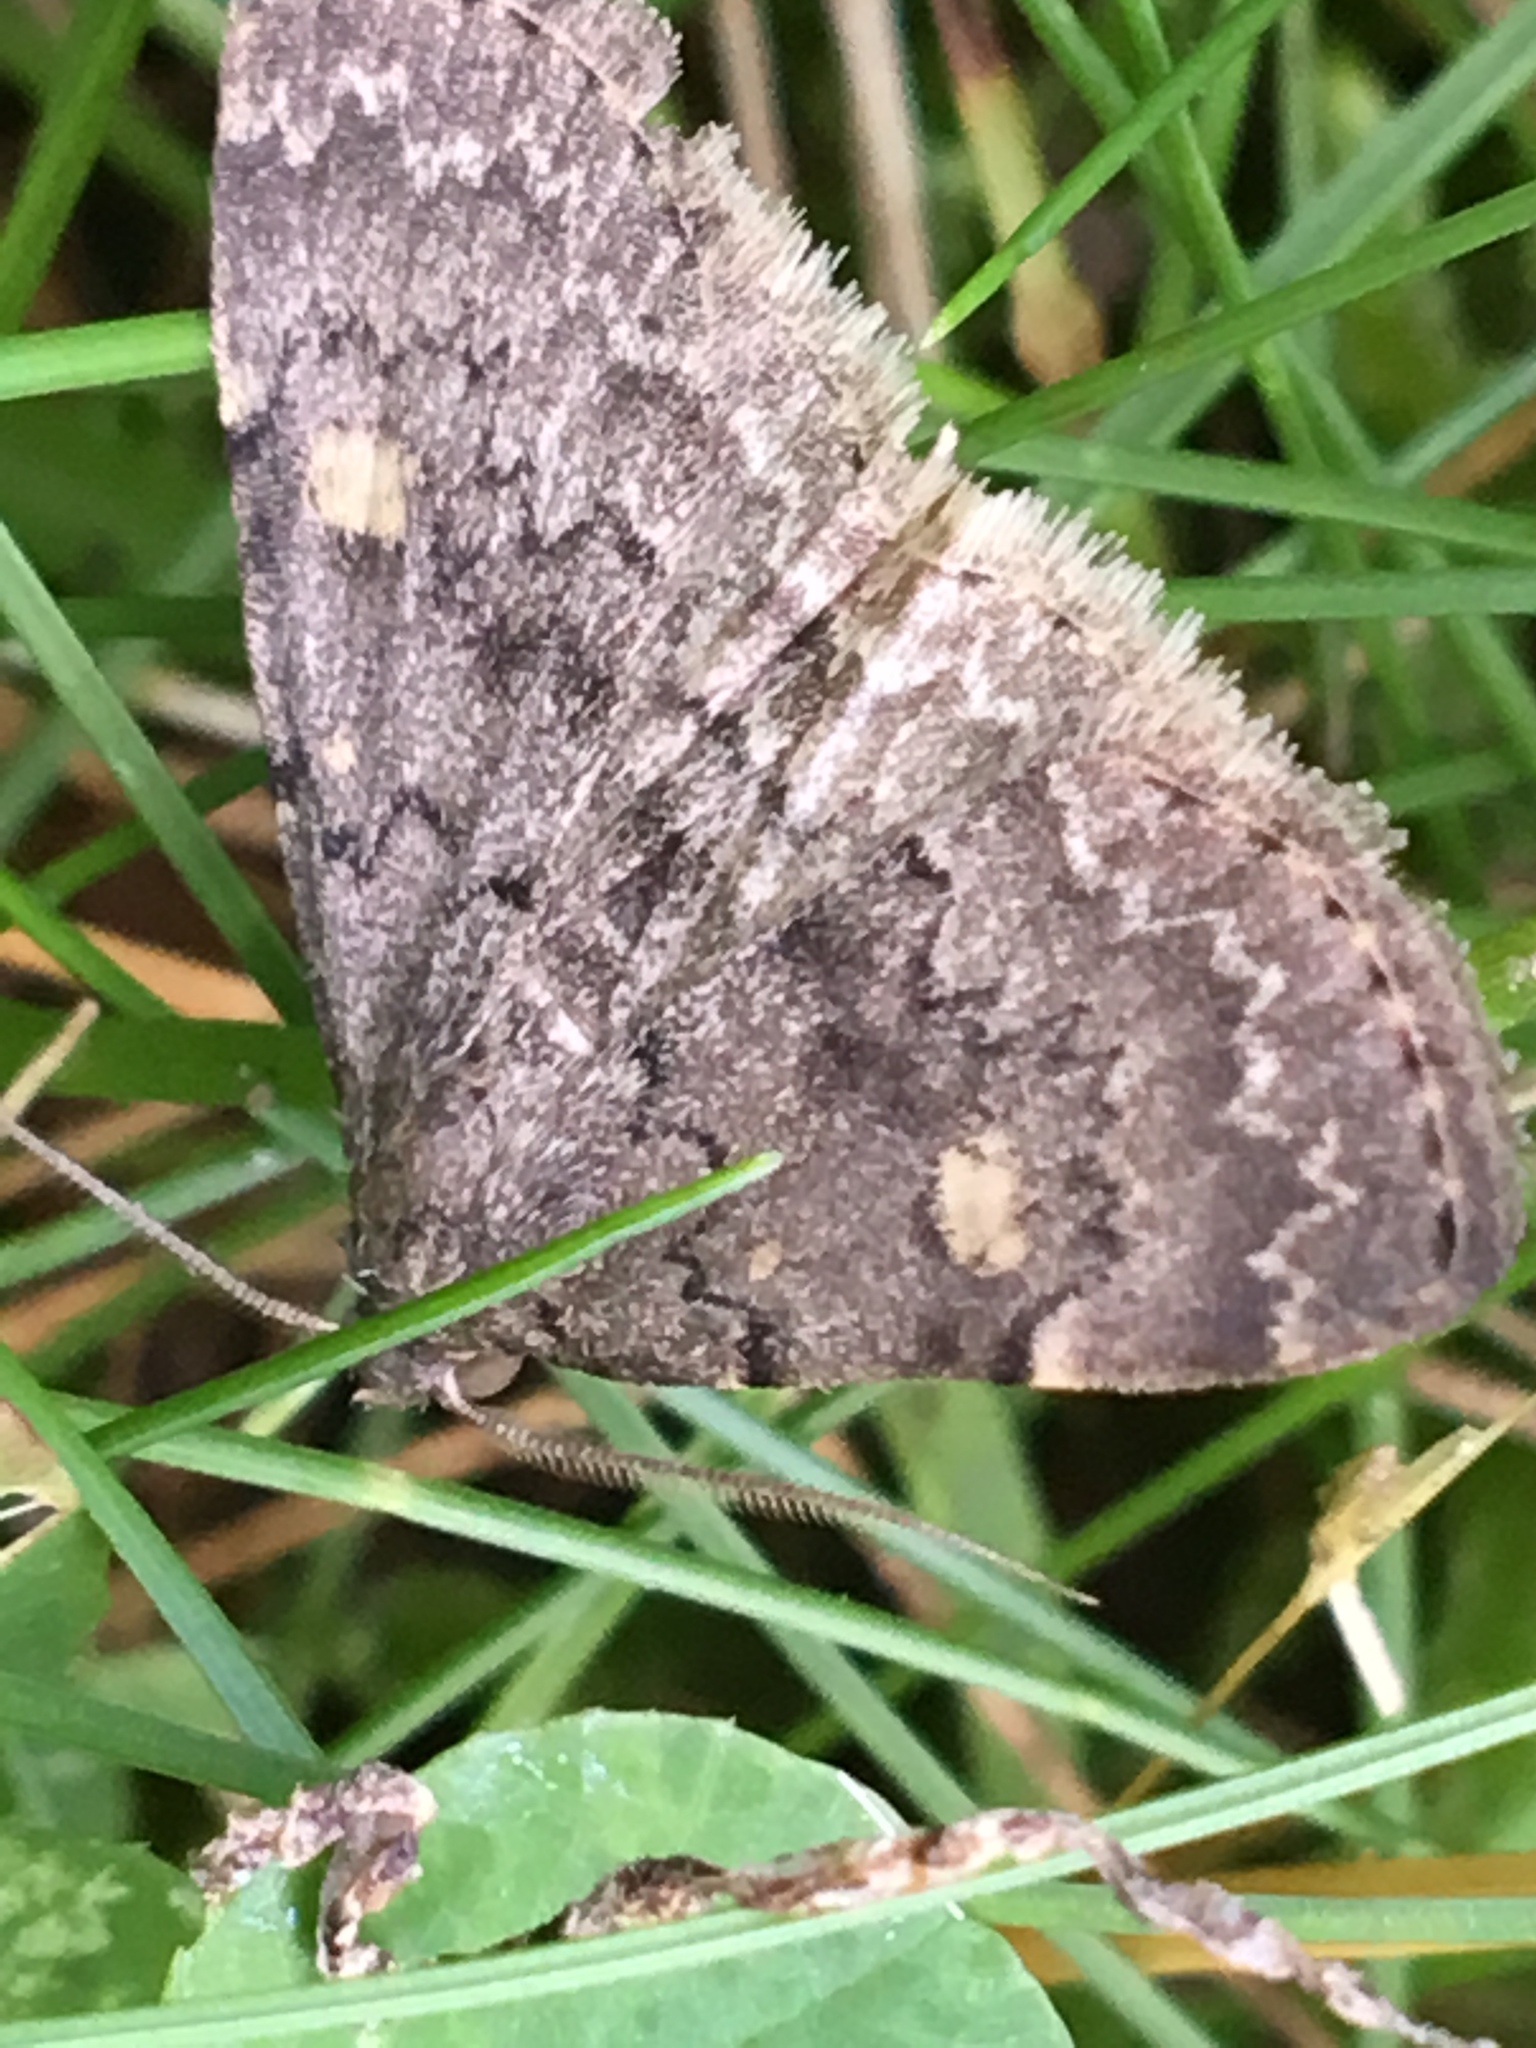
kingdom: Animalia
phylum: Arthropoda
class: Insecta
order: Lepidoptera
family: Erebidae
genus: Idia
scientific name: Idia aemula
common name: Common idia moth
